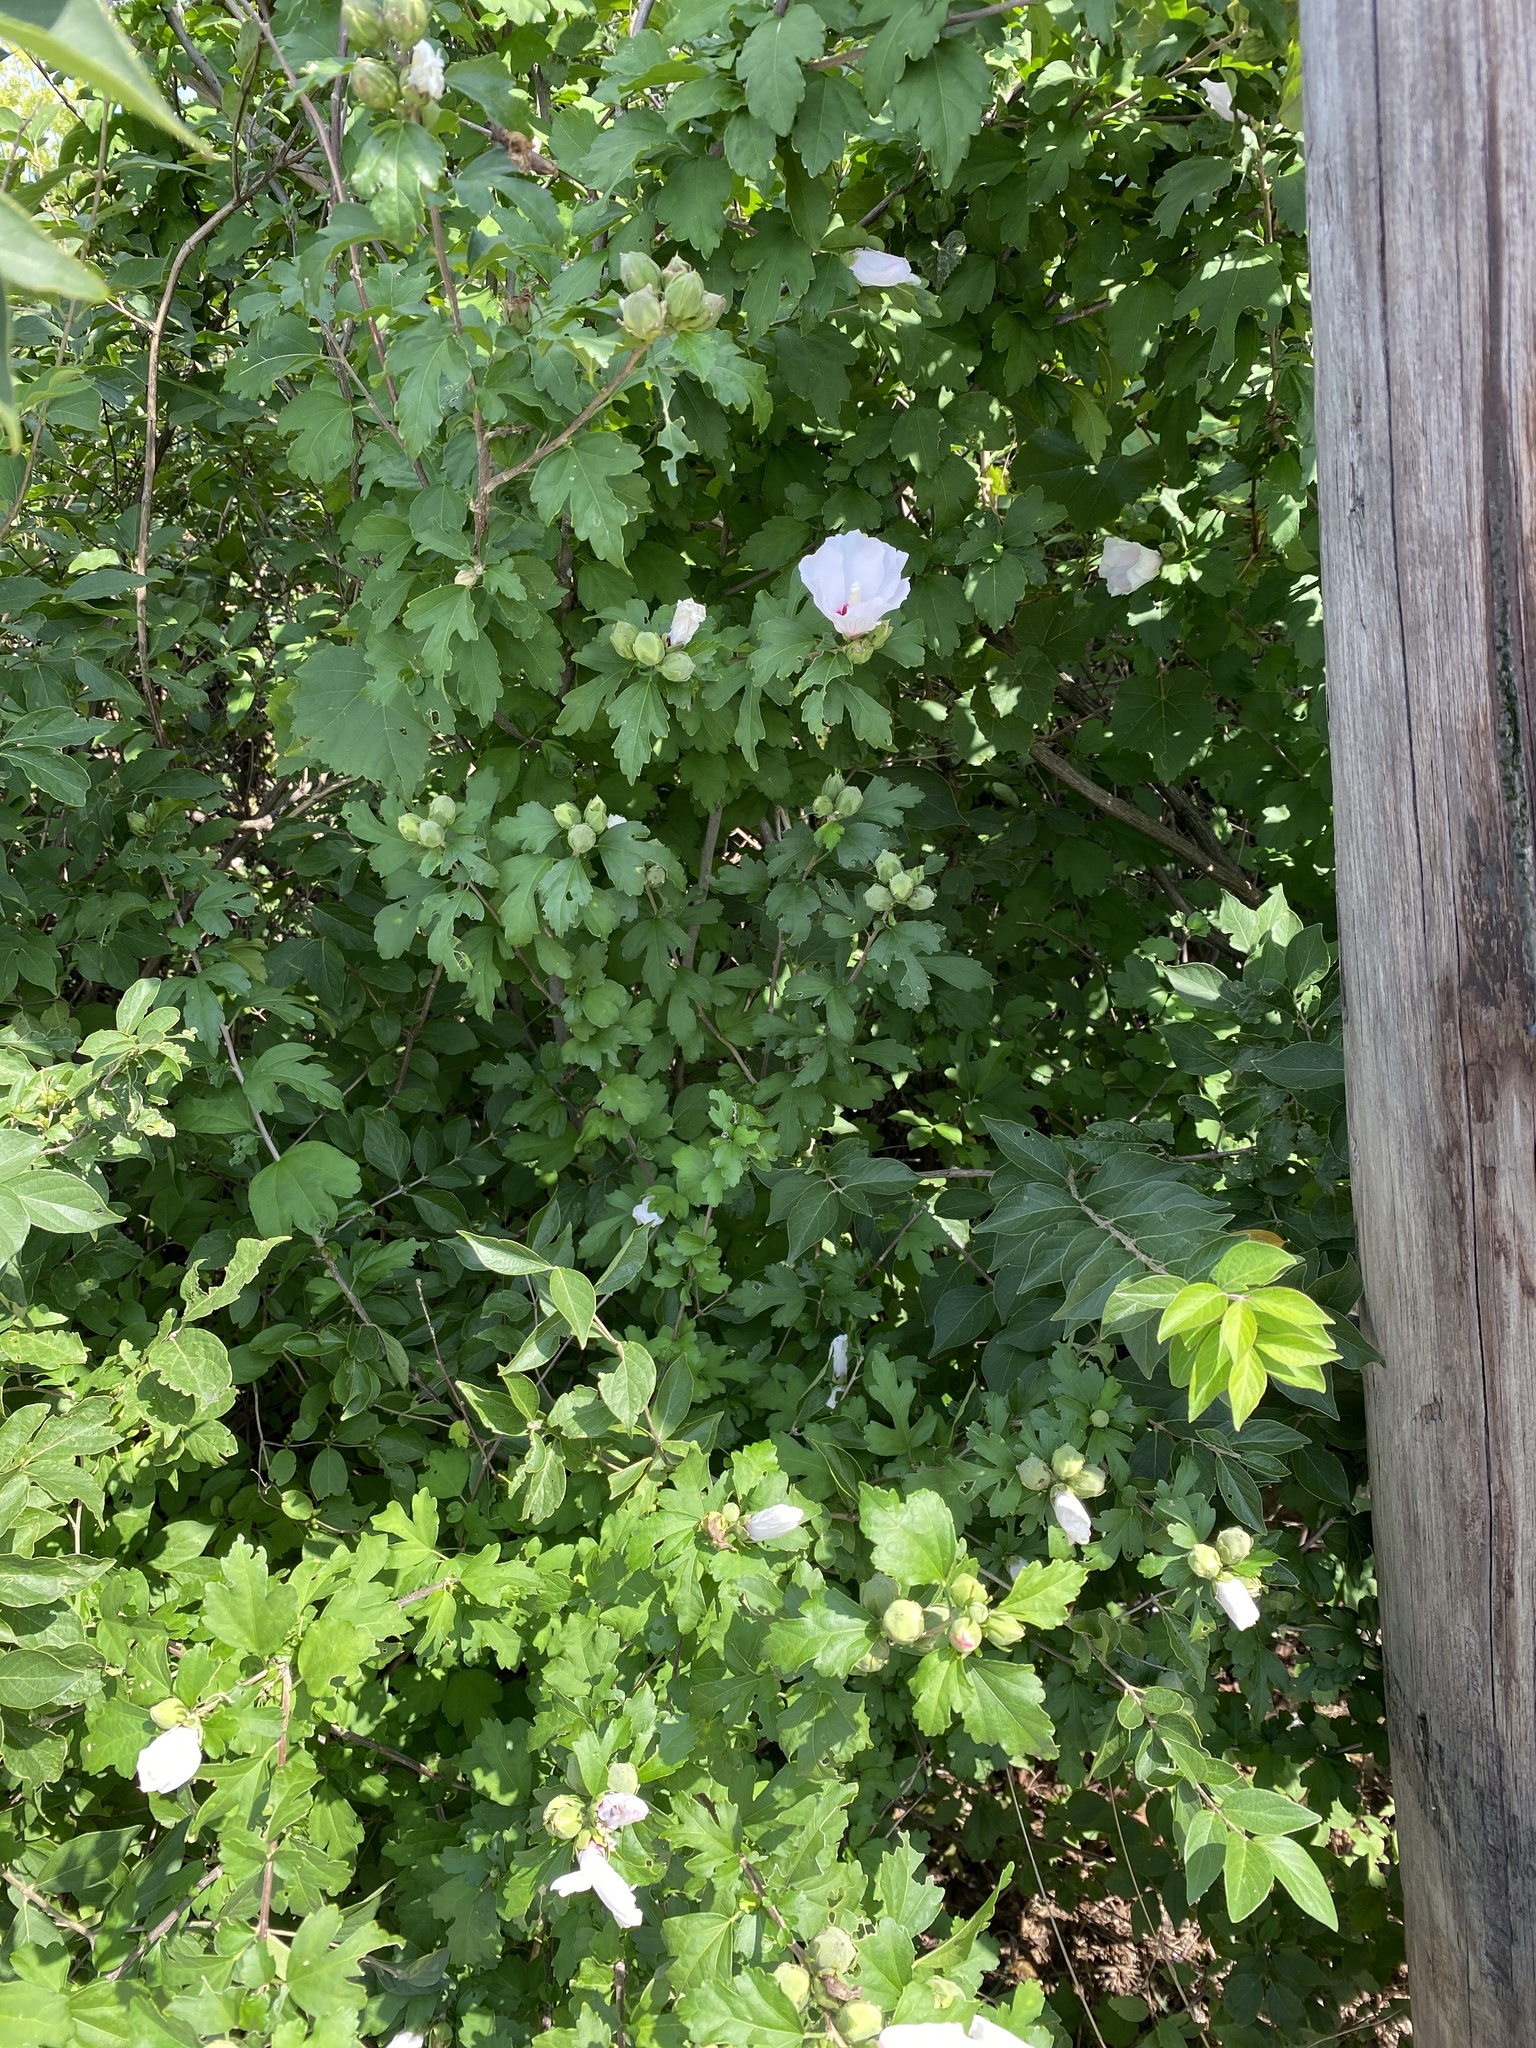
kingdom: Plantae
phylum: Tracheophyta
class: Magnoliopsida
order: Malvales
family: Malvaceae
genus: Hibiscus
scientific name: Hibiscus syriacus
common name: Syrian ketmia
